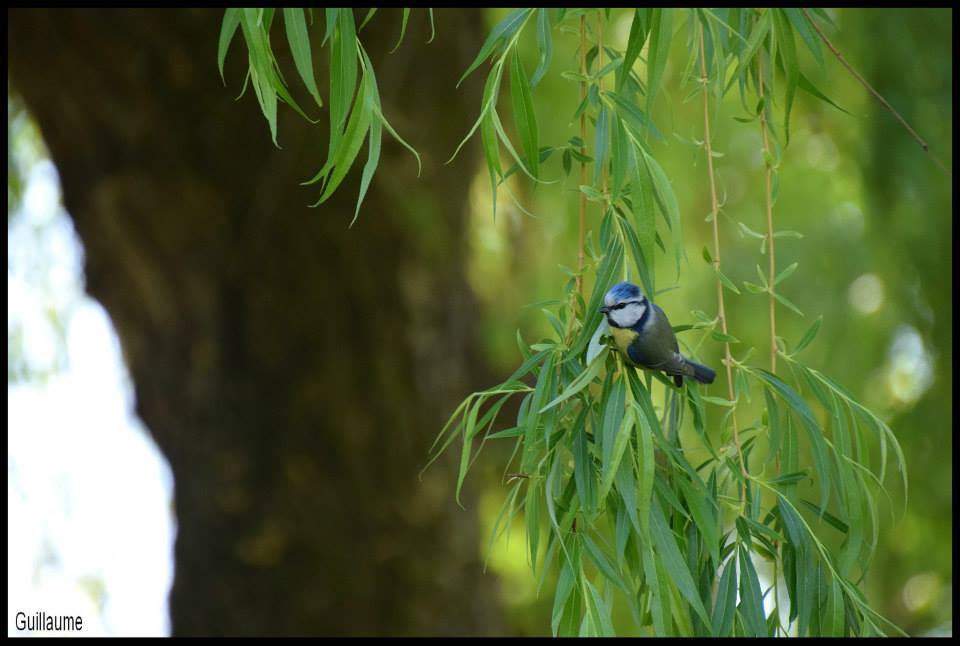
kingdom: Animalia
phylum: Chordata
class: Aves
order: Passeriformes
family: Paridae
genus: Cyanistes
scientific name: Cyanistes caeruleus
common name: Eurasian blue tit
